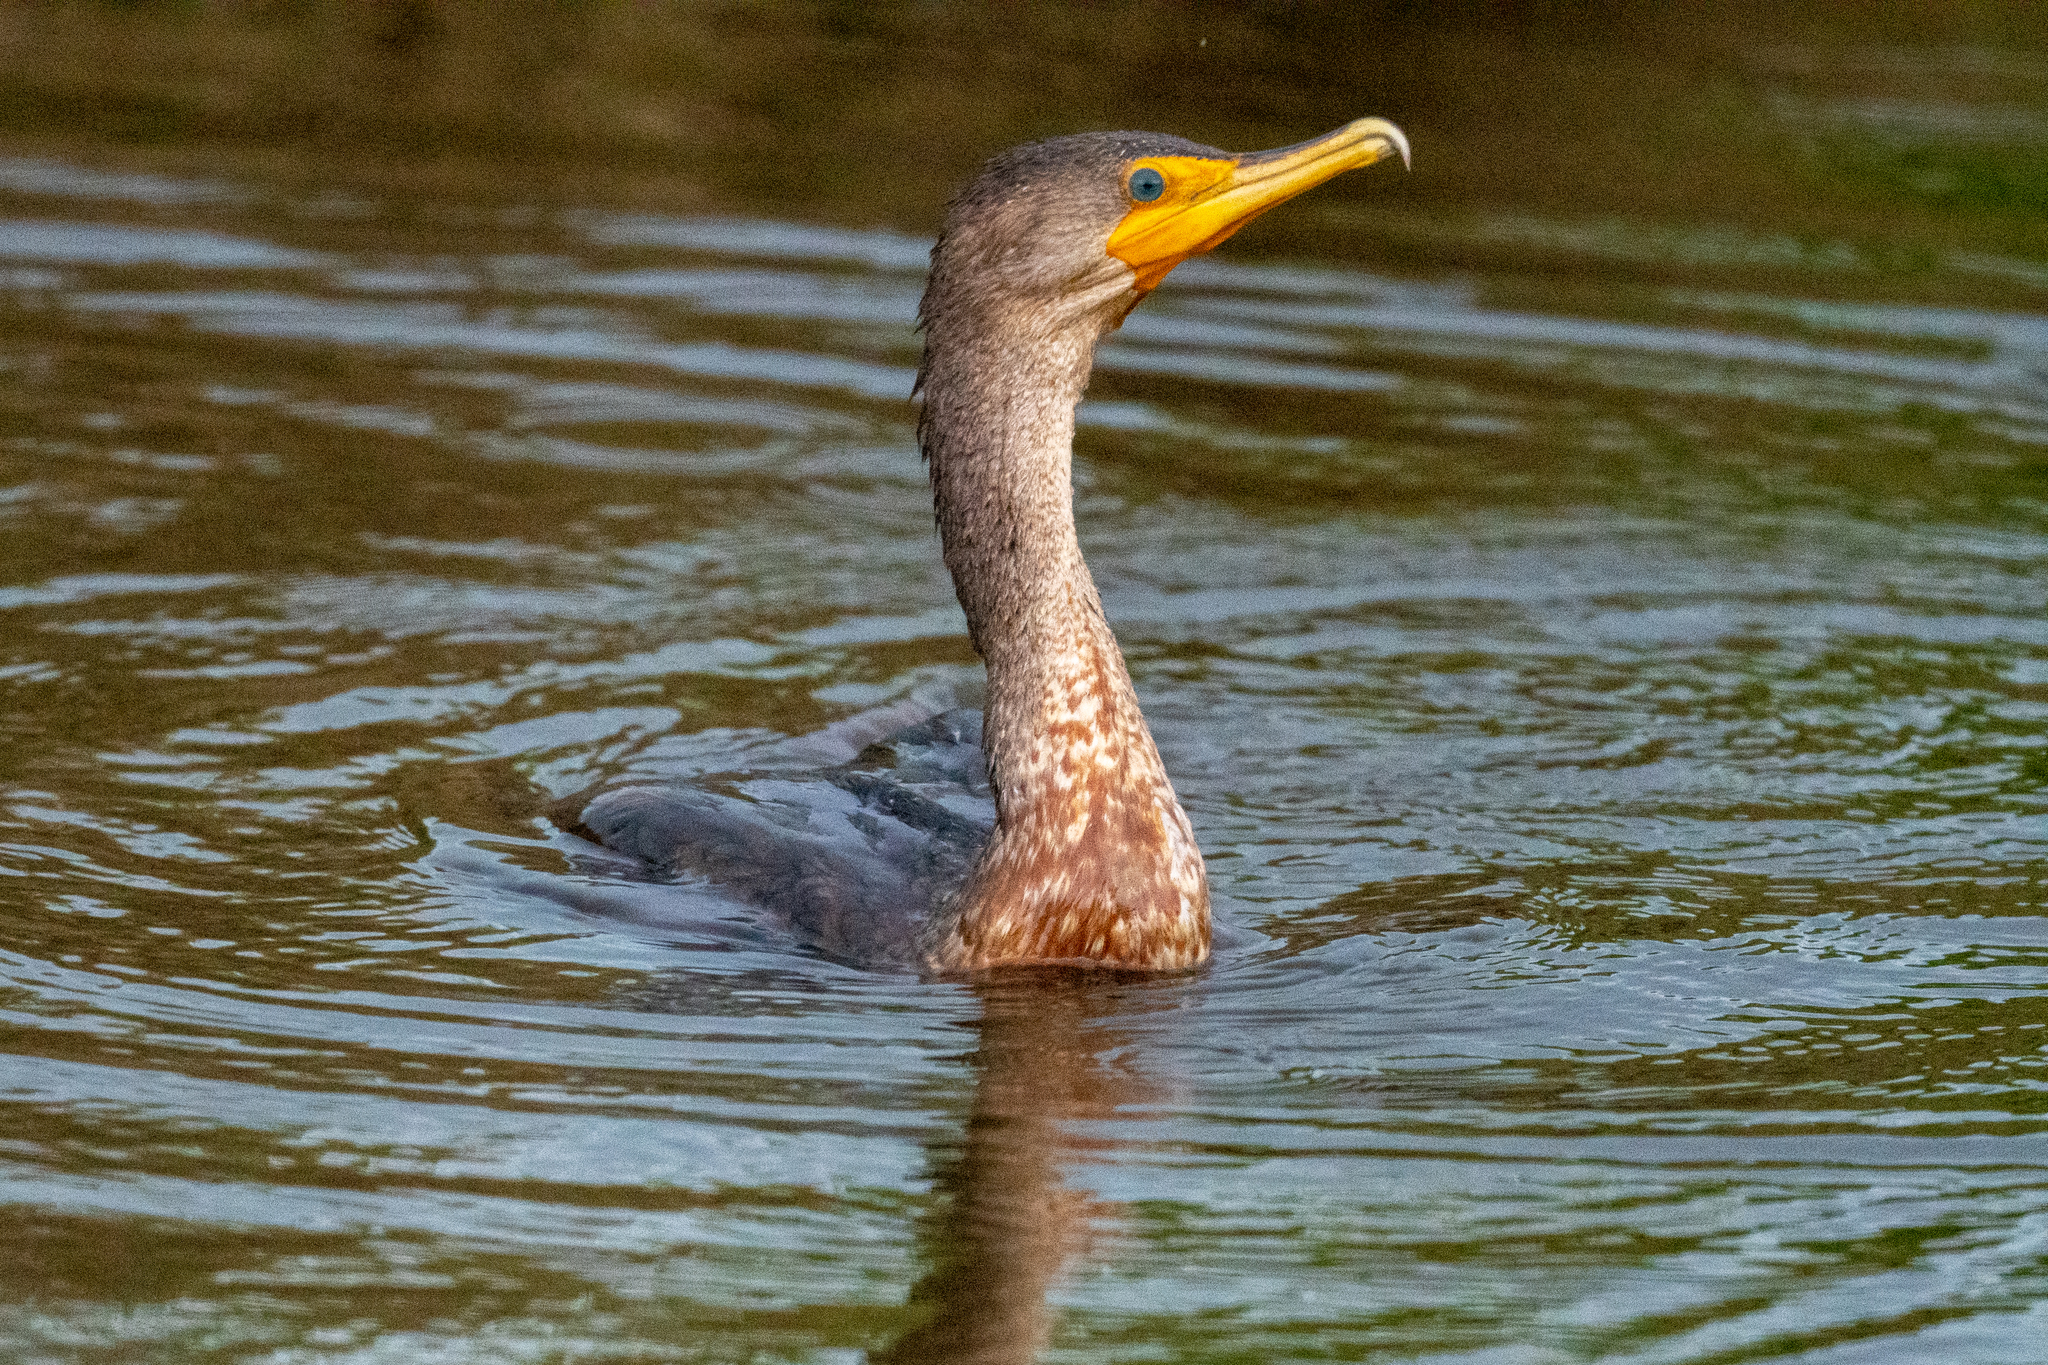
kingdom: Animalia
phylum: Chordata
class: Aves
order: Suliformes
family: Phalacrocoracidae
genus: Phalacrocorax
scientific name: Phalacrocorax auritus
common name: Double-crested cormorant
